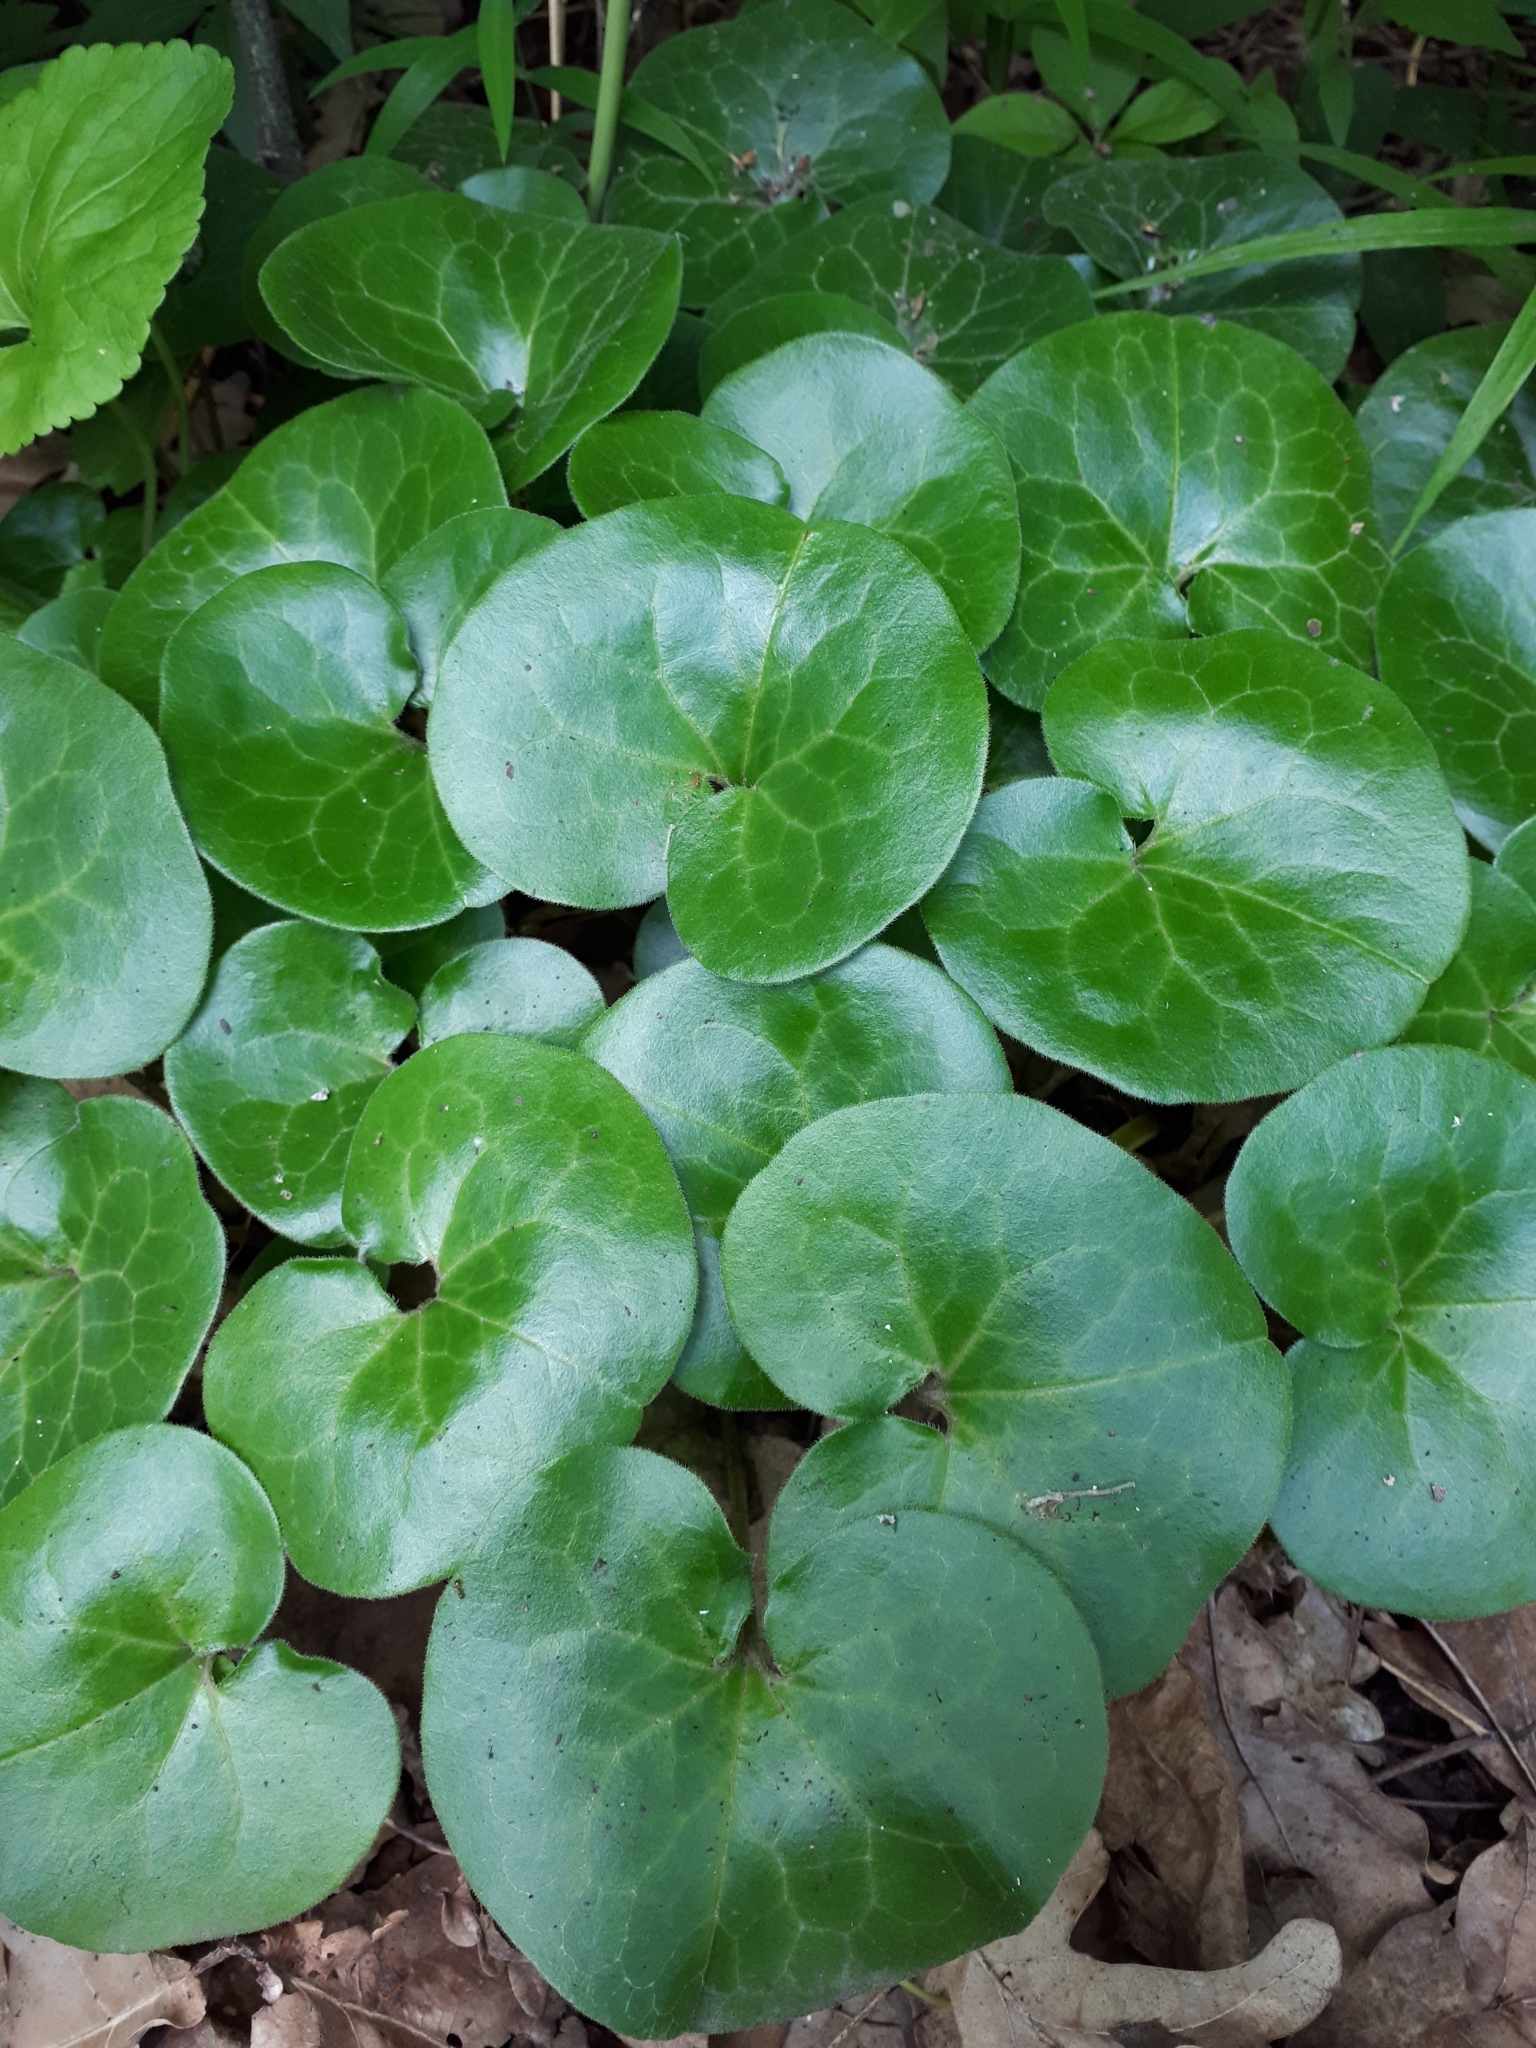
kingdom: Plantae
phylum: Tracheophyta
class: Magnoliopsida
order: Piperales
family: Aristolochiaceae
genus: Asarum
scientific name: Asarum europaeum
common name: Asarabacca
